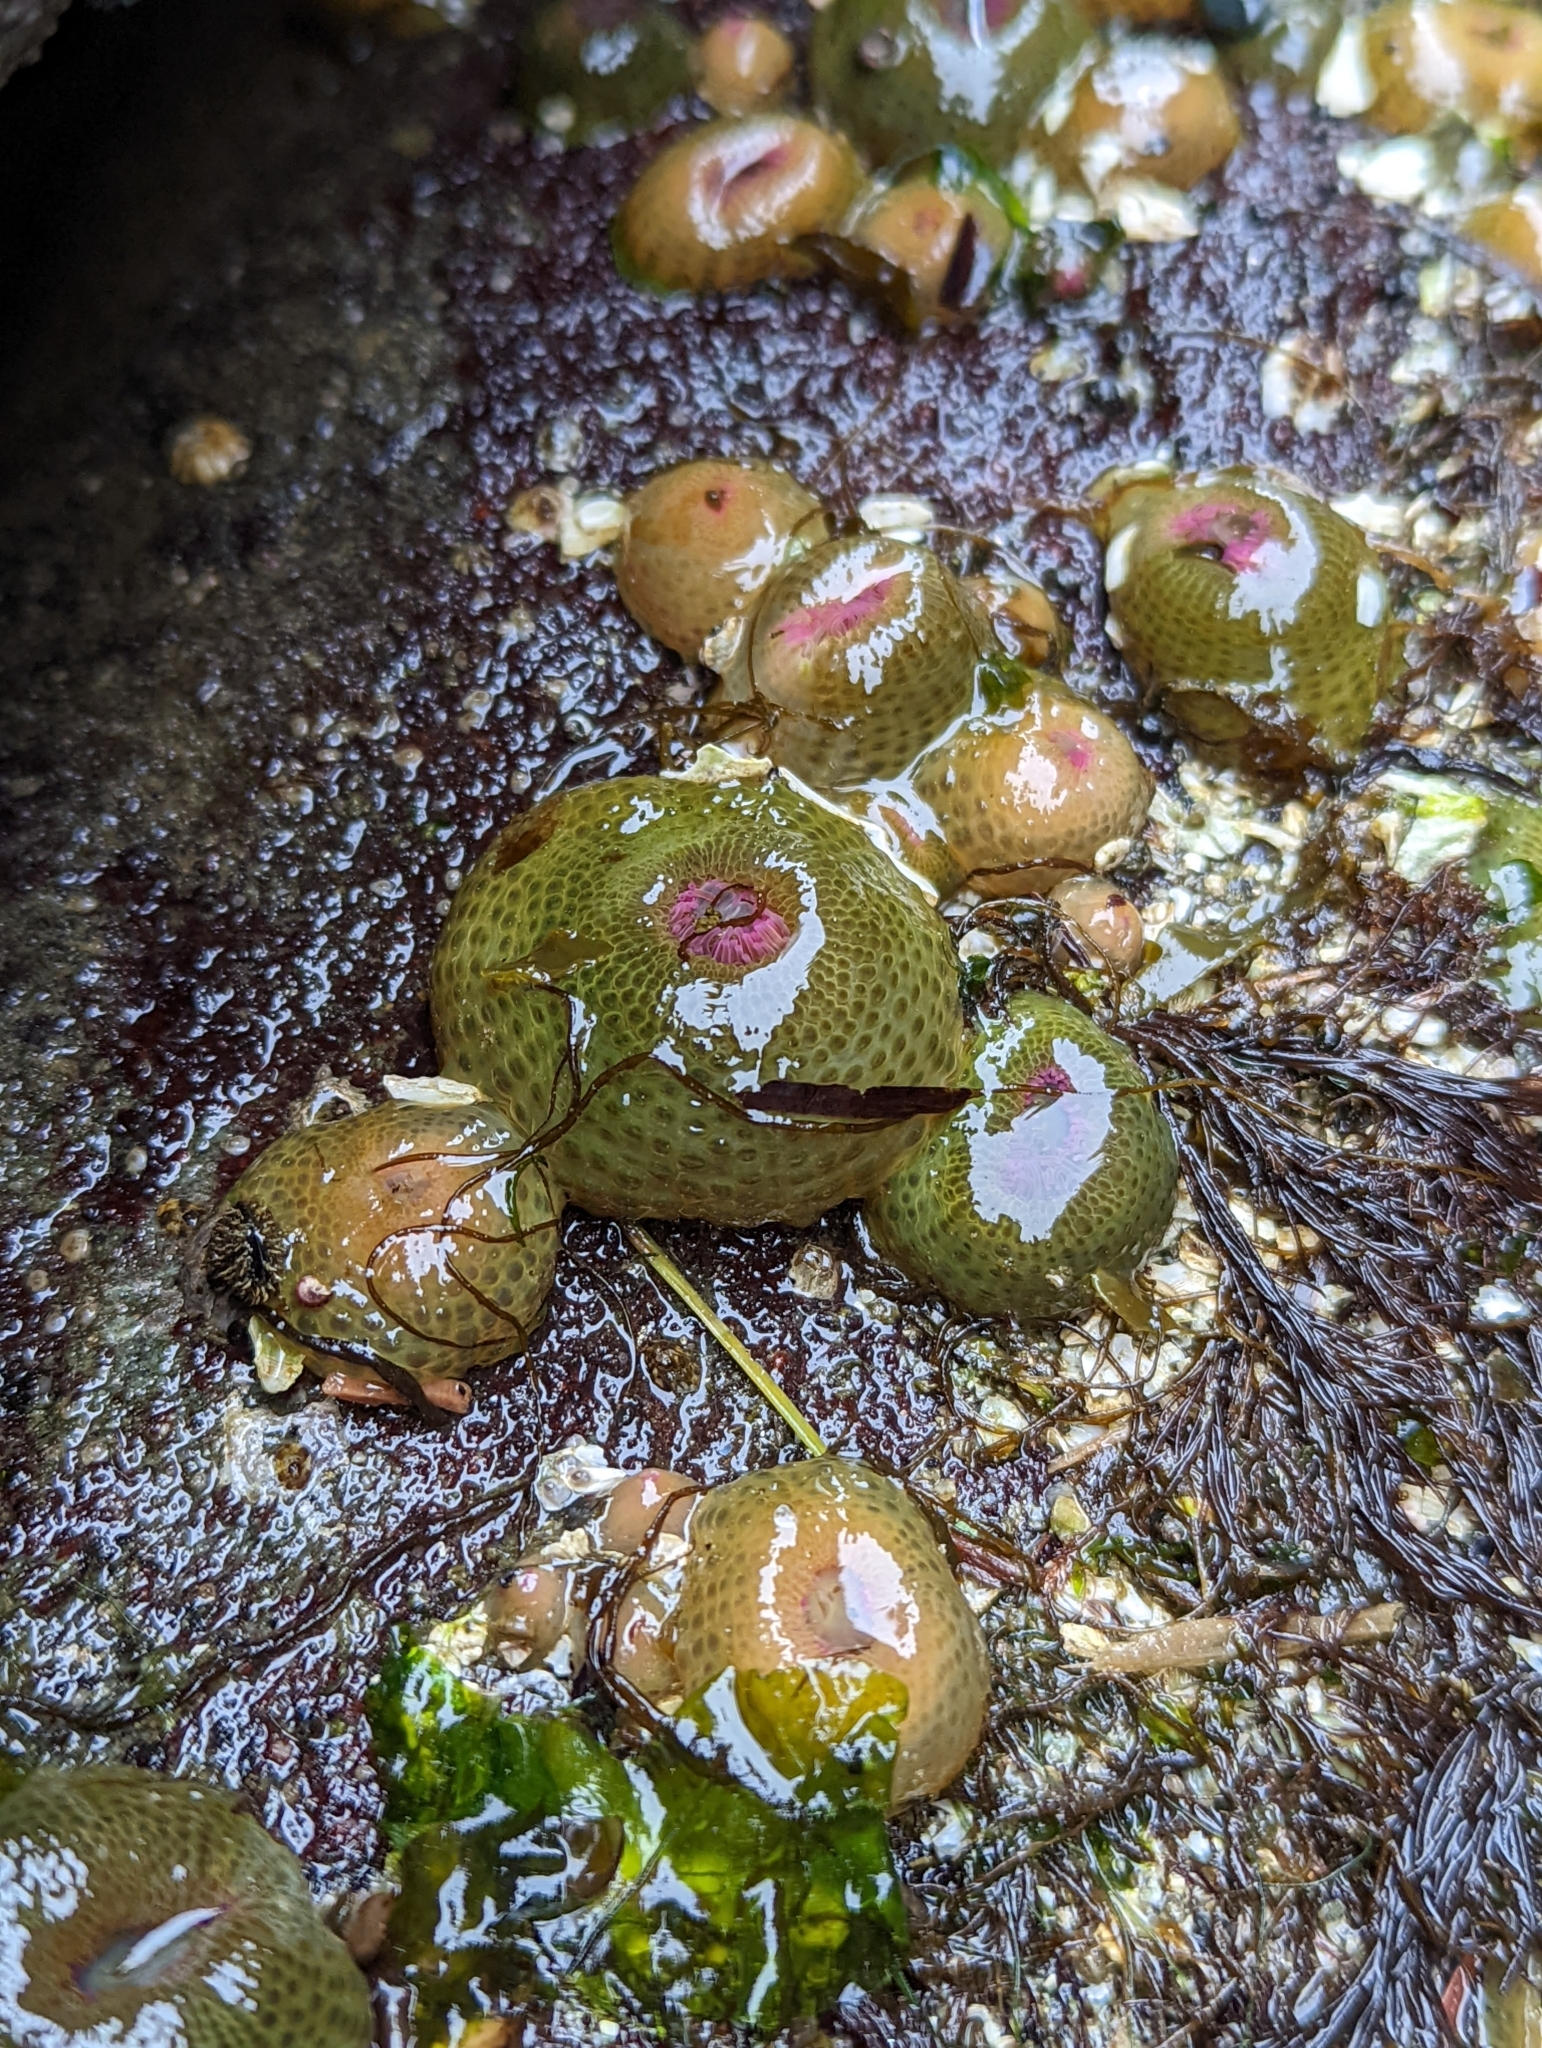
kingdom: Animalia
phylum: Cnidaria
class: Anthozoa
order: Actiniaria
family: Actiniidae
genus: Anthopleura
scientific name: Anthopleura elegantissima
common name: Clonal anemone
